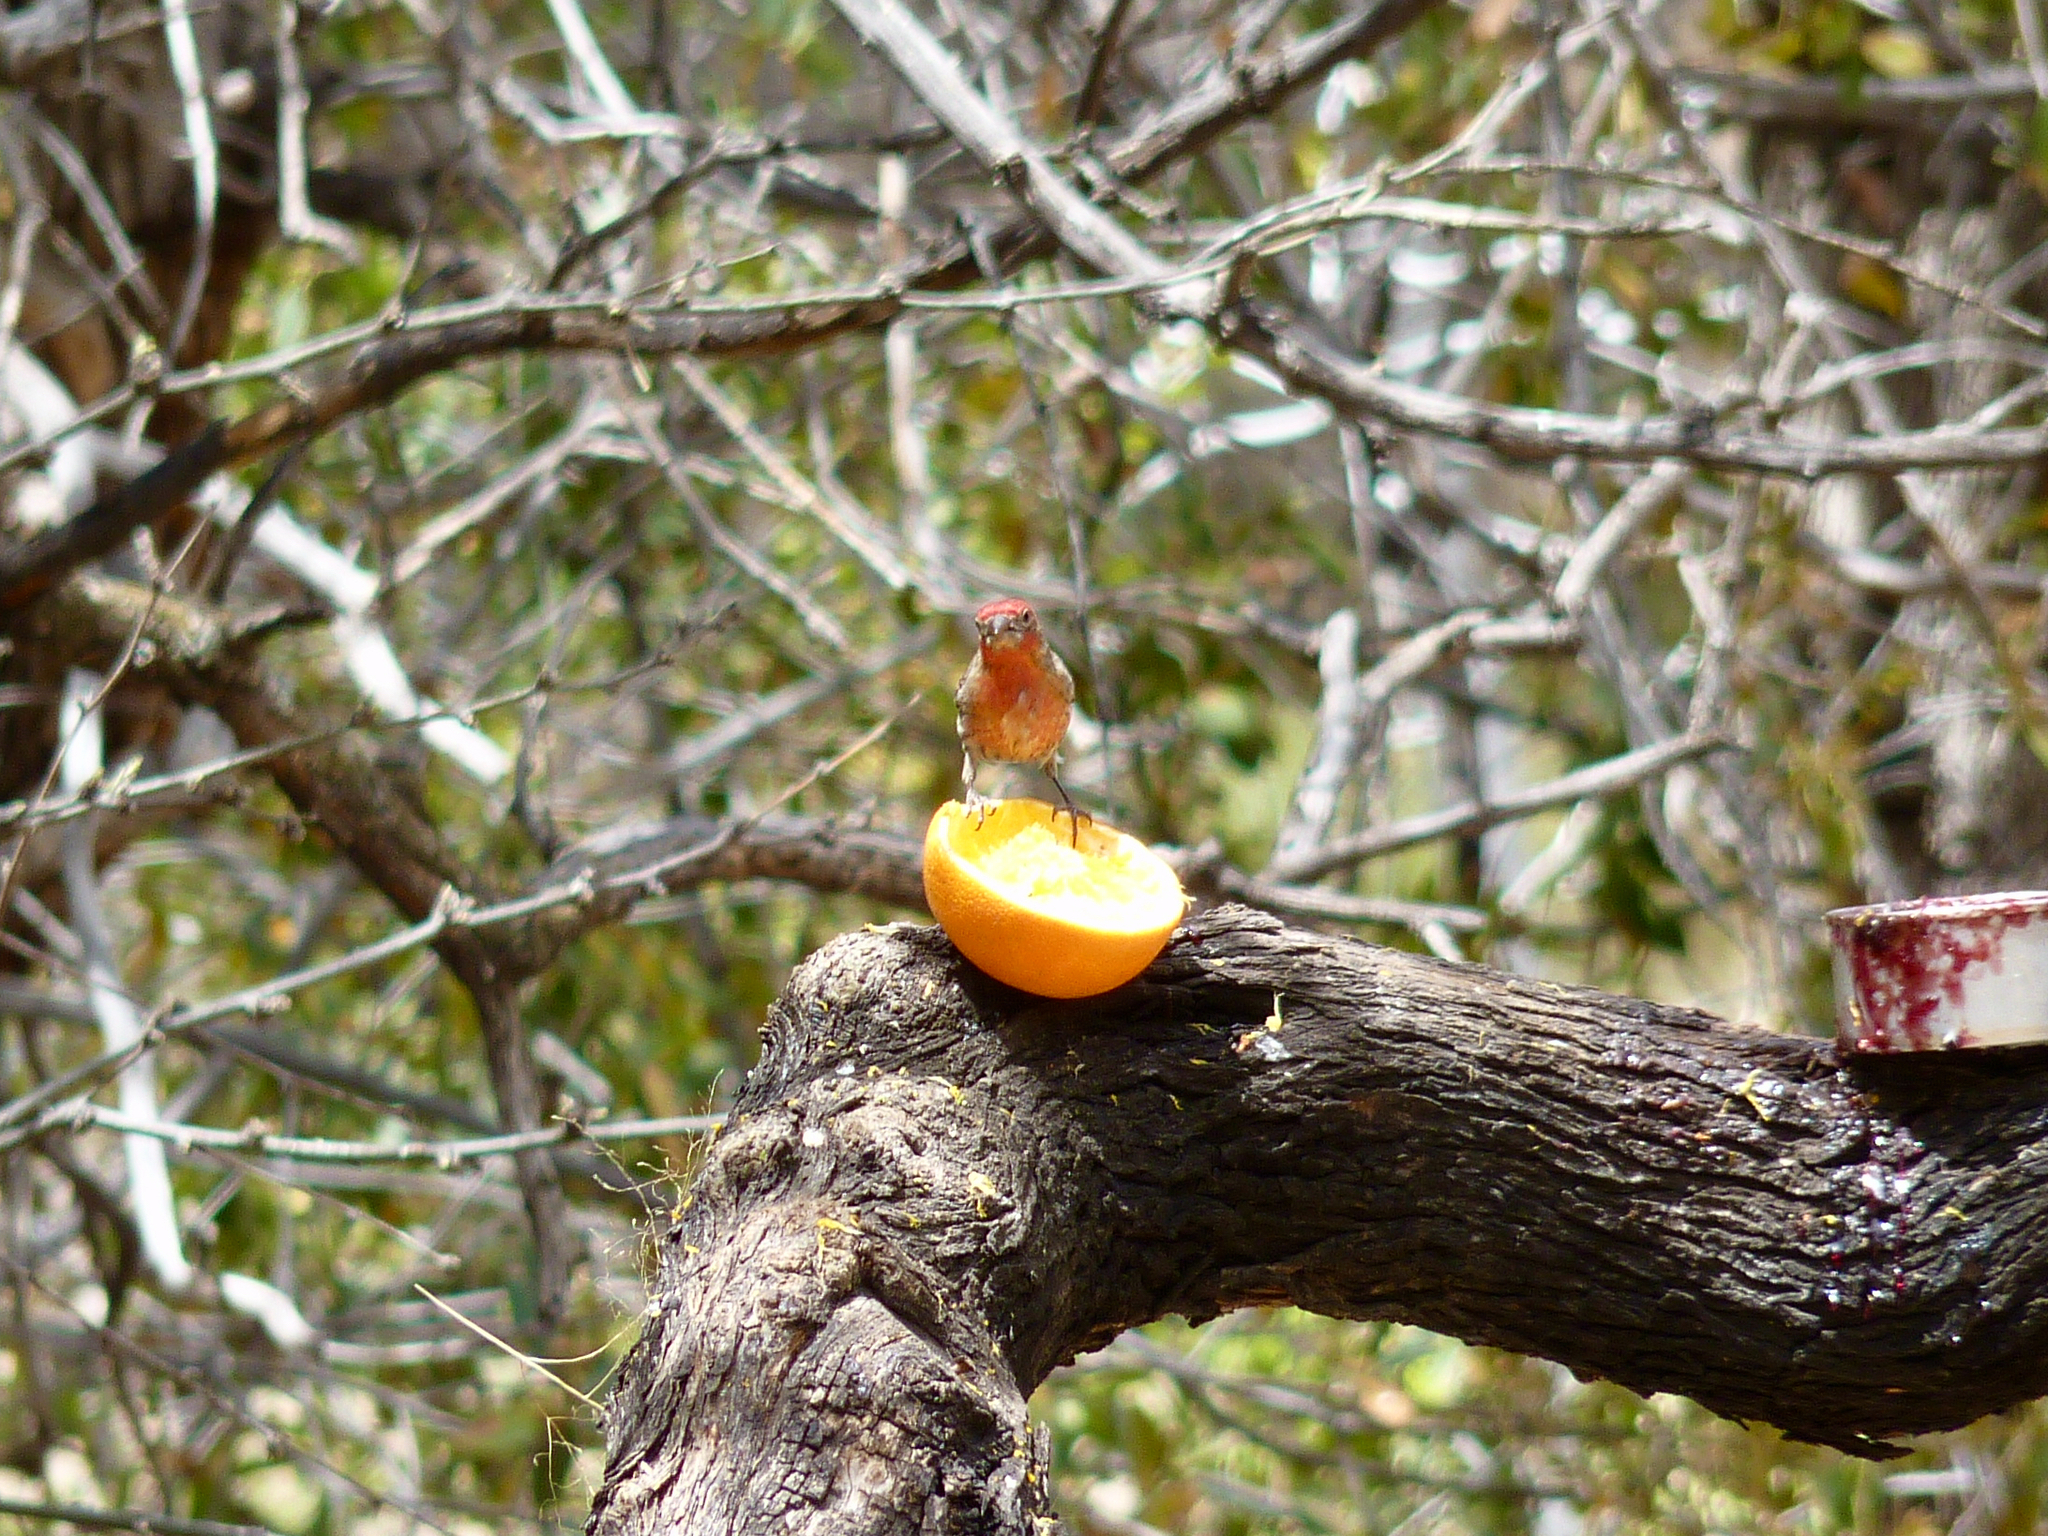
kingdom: Animalia
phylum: Chordata
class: Aves
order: Passeriformes
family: Fringillidae
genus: Haemorhous
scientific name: Haemorhous mexicanus
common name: House finch
